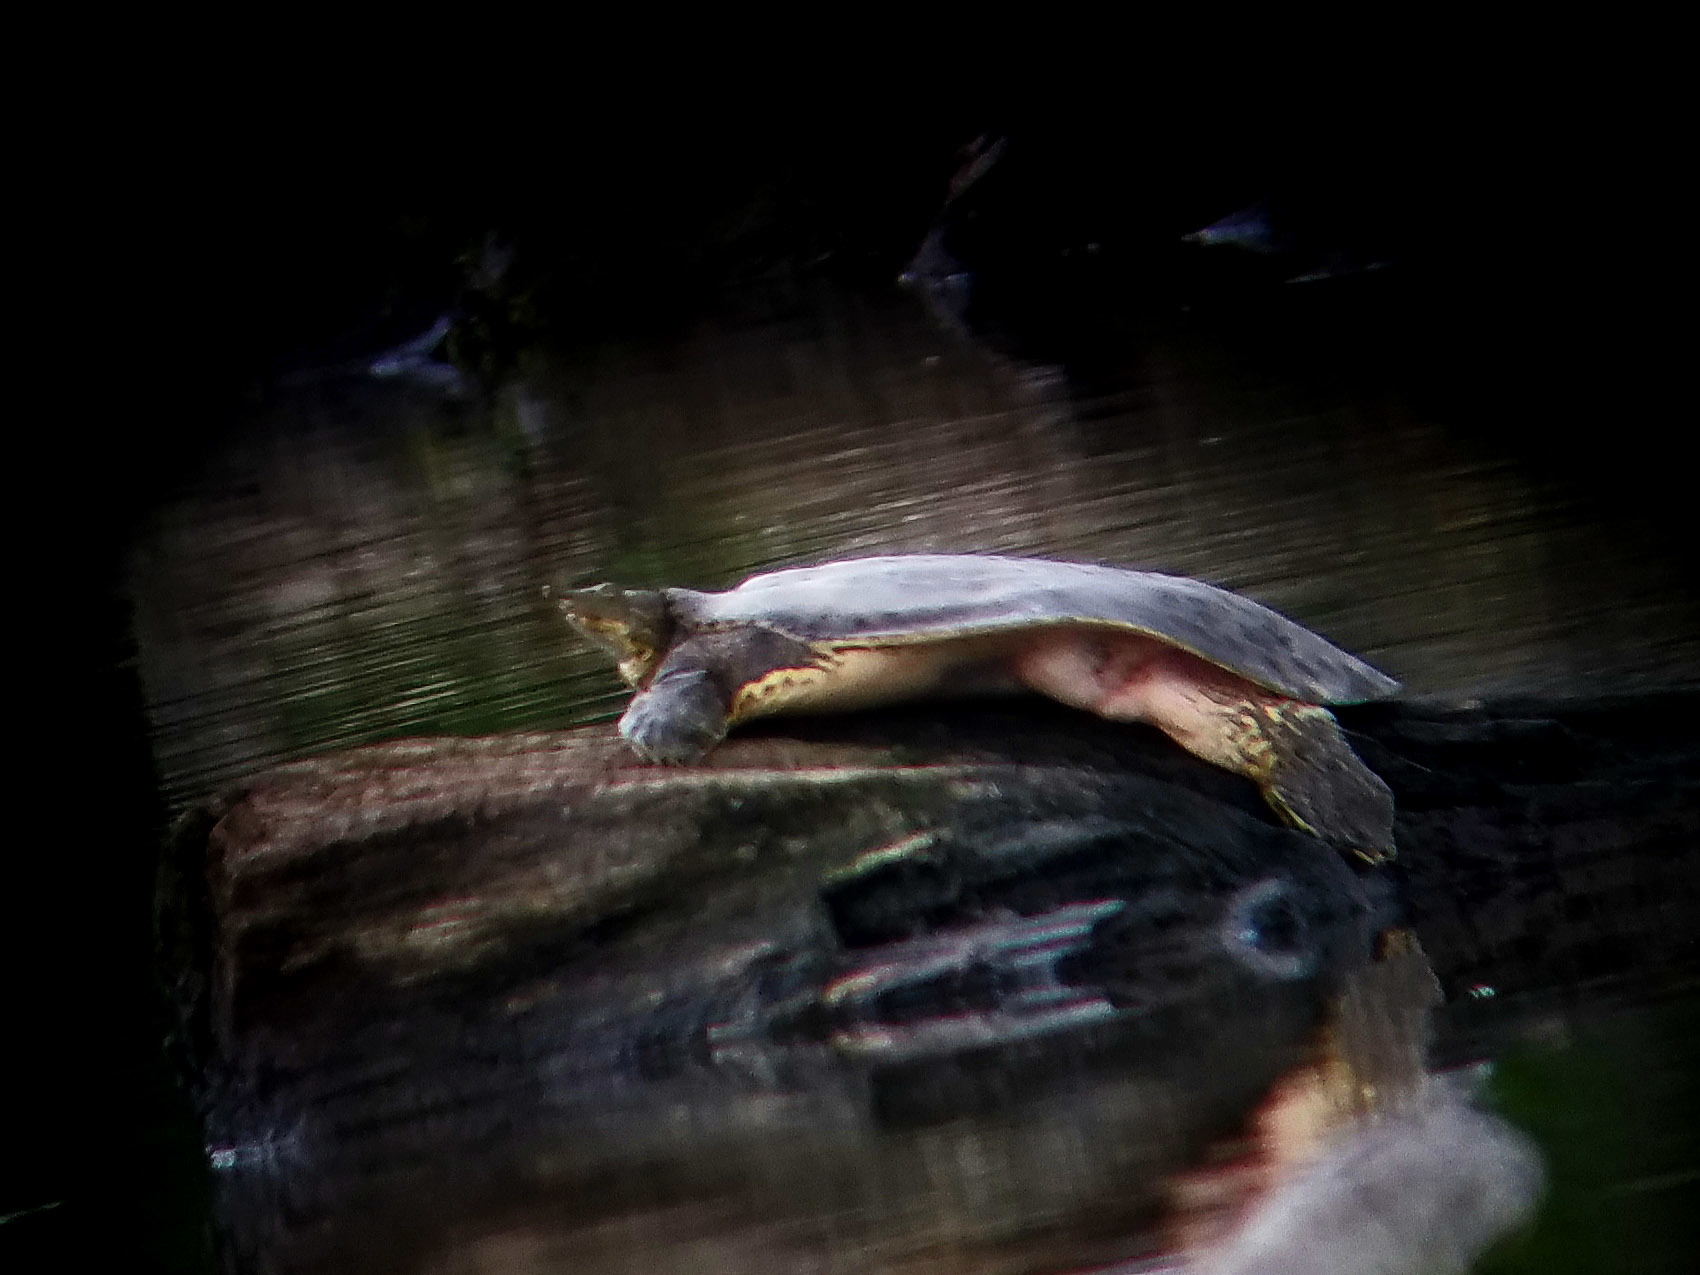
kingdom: Animalia
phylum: Chordata
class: Testudines
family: Trionychidae
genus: Apalone
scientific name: Apalone spinifera
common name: Spiny softshell turtle
